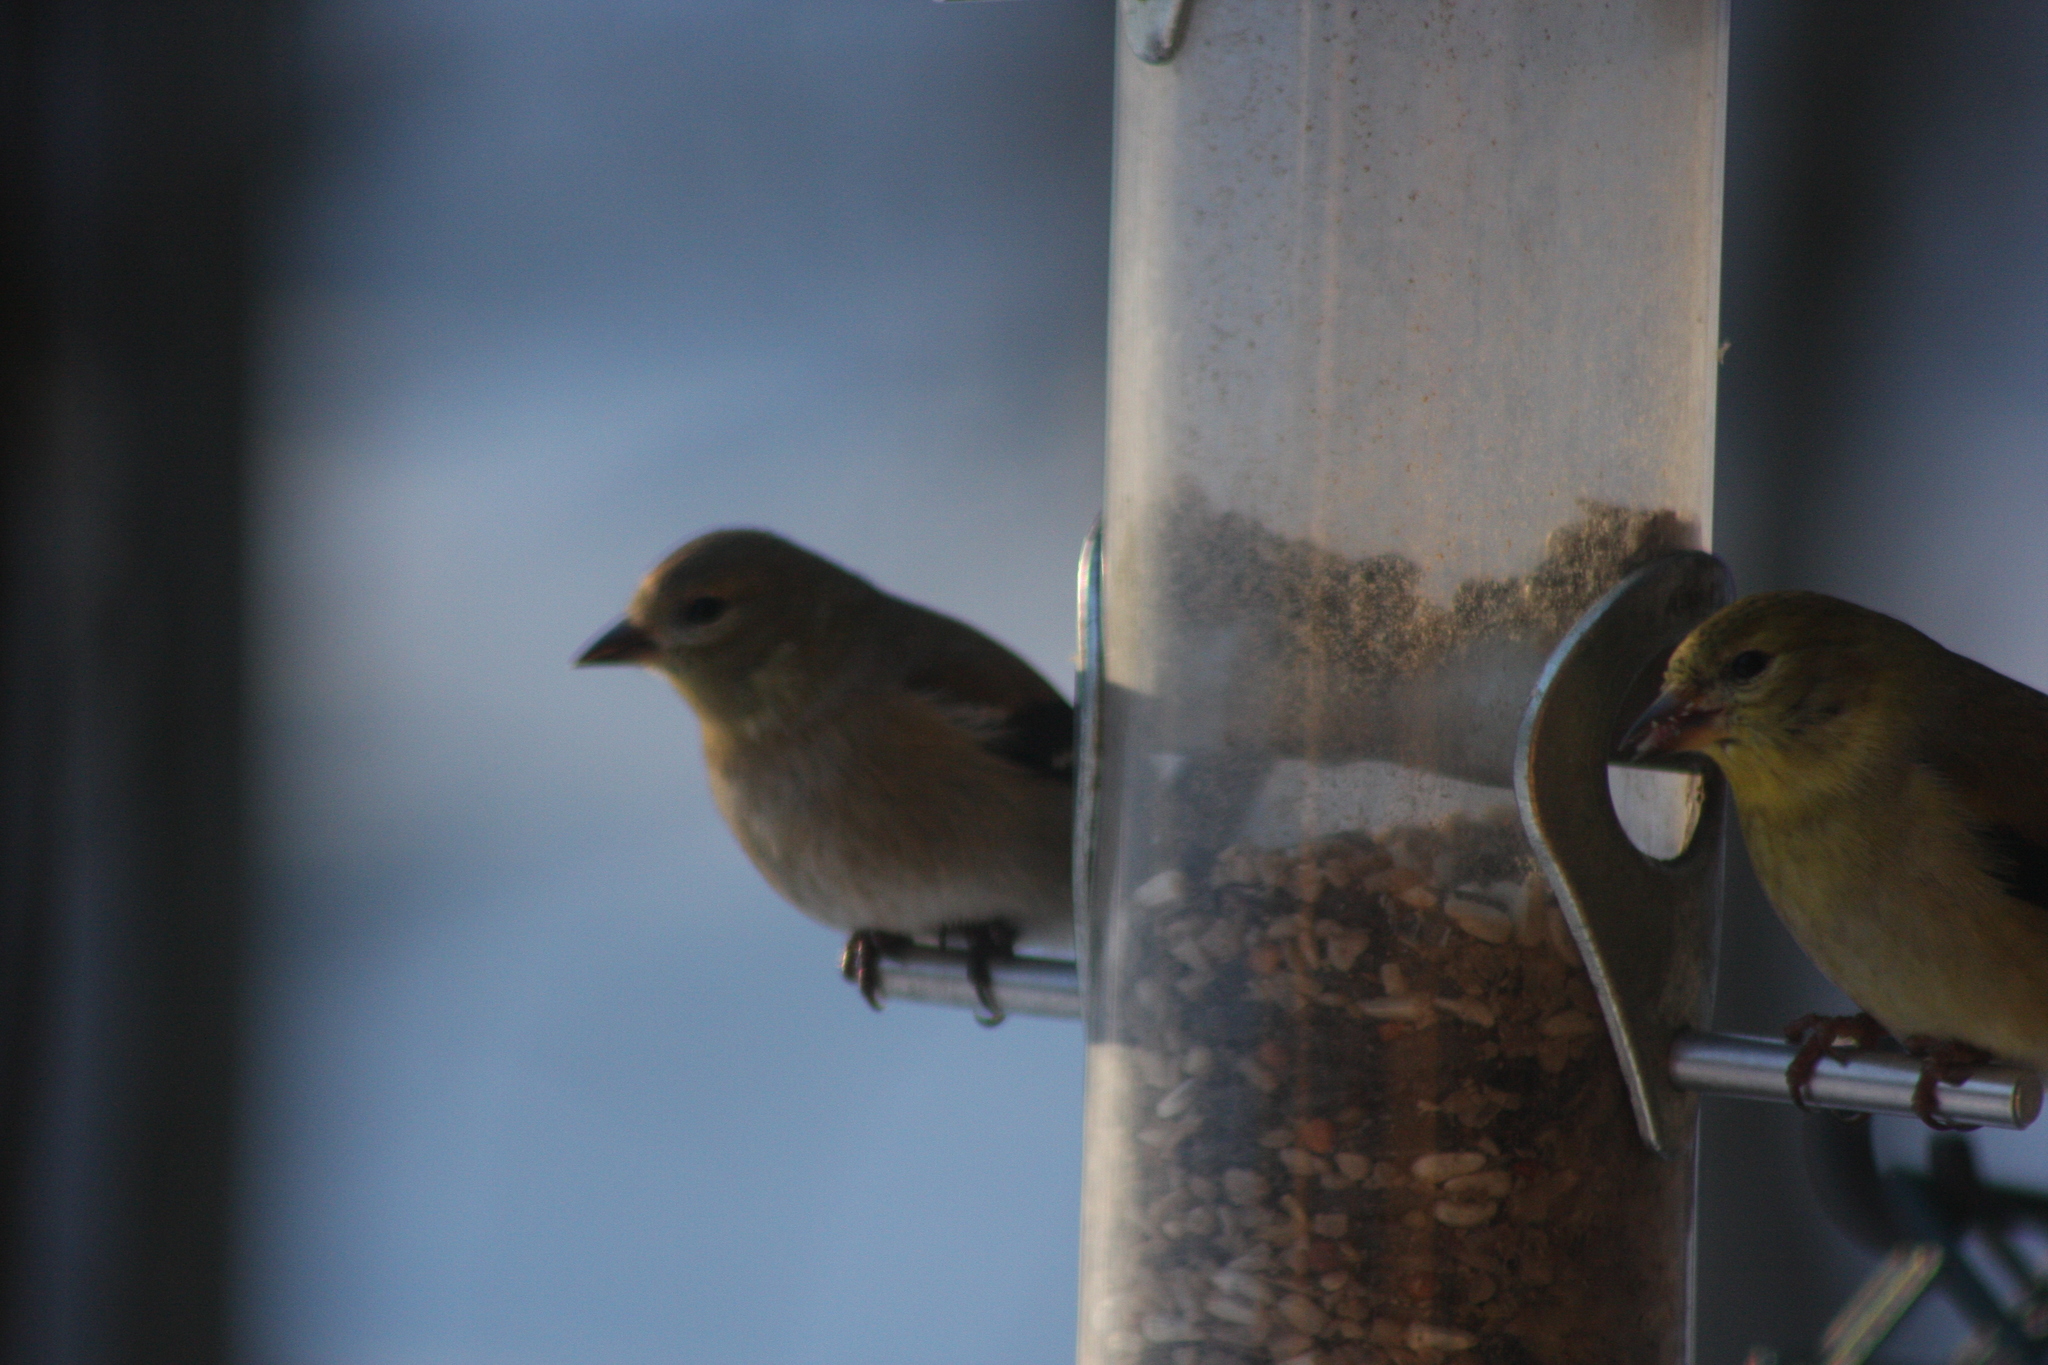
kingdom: Animalia
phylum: Chordata
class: Aves
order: Passeriformes
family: Fringillidae
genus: Spinus
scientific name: Spinus tristis
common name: American goldfinch
